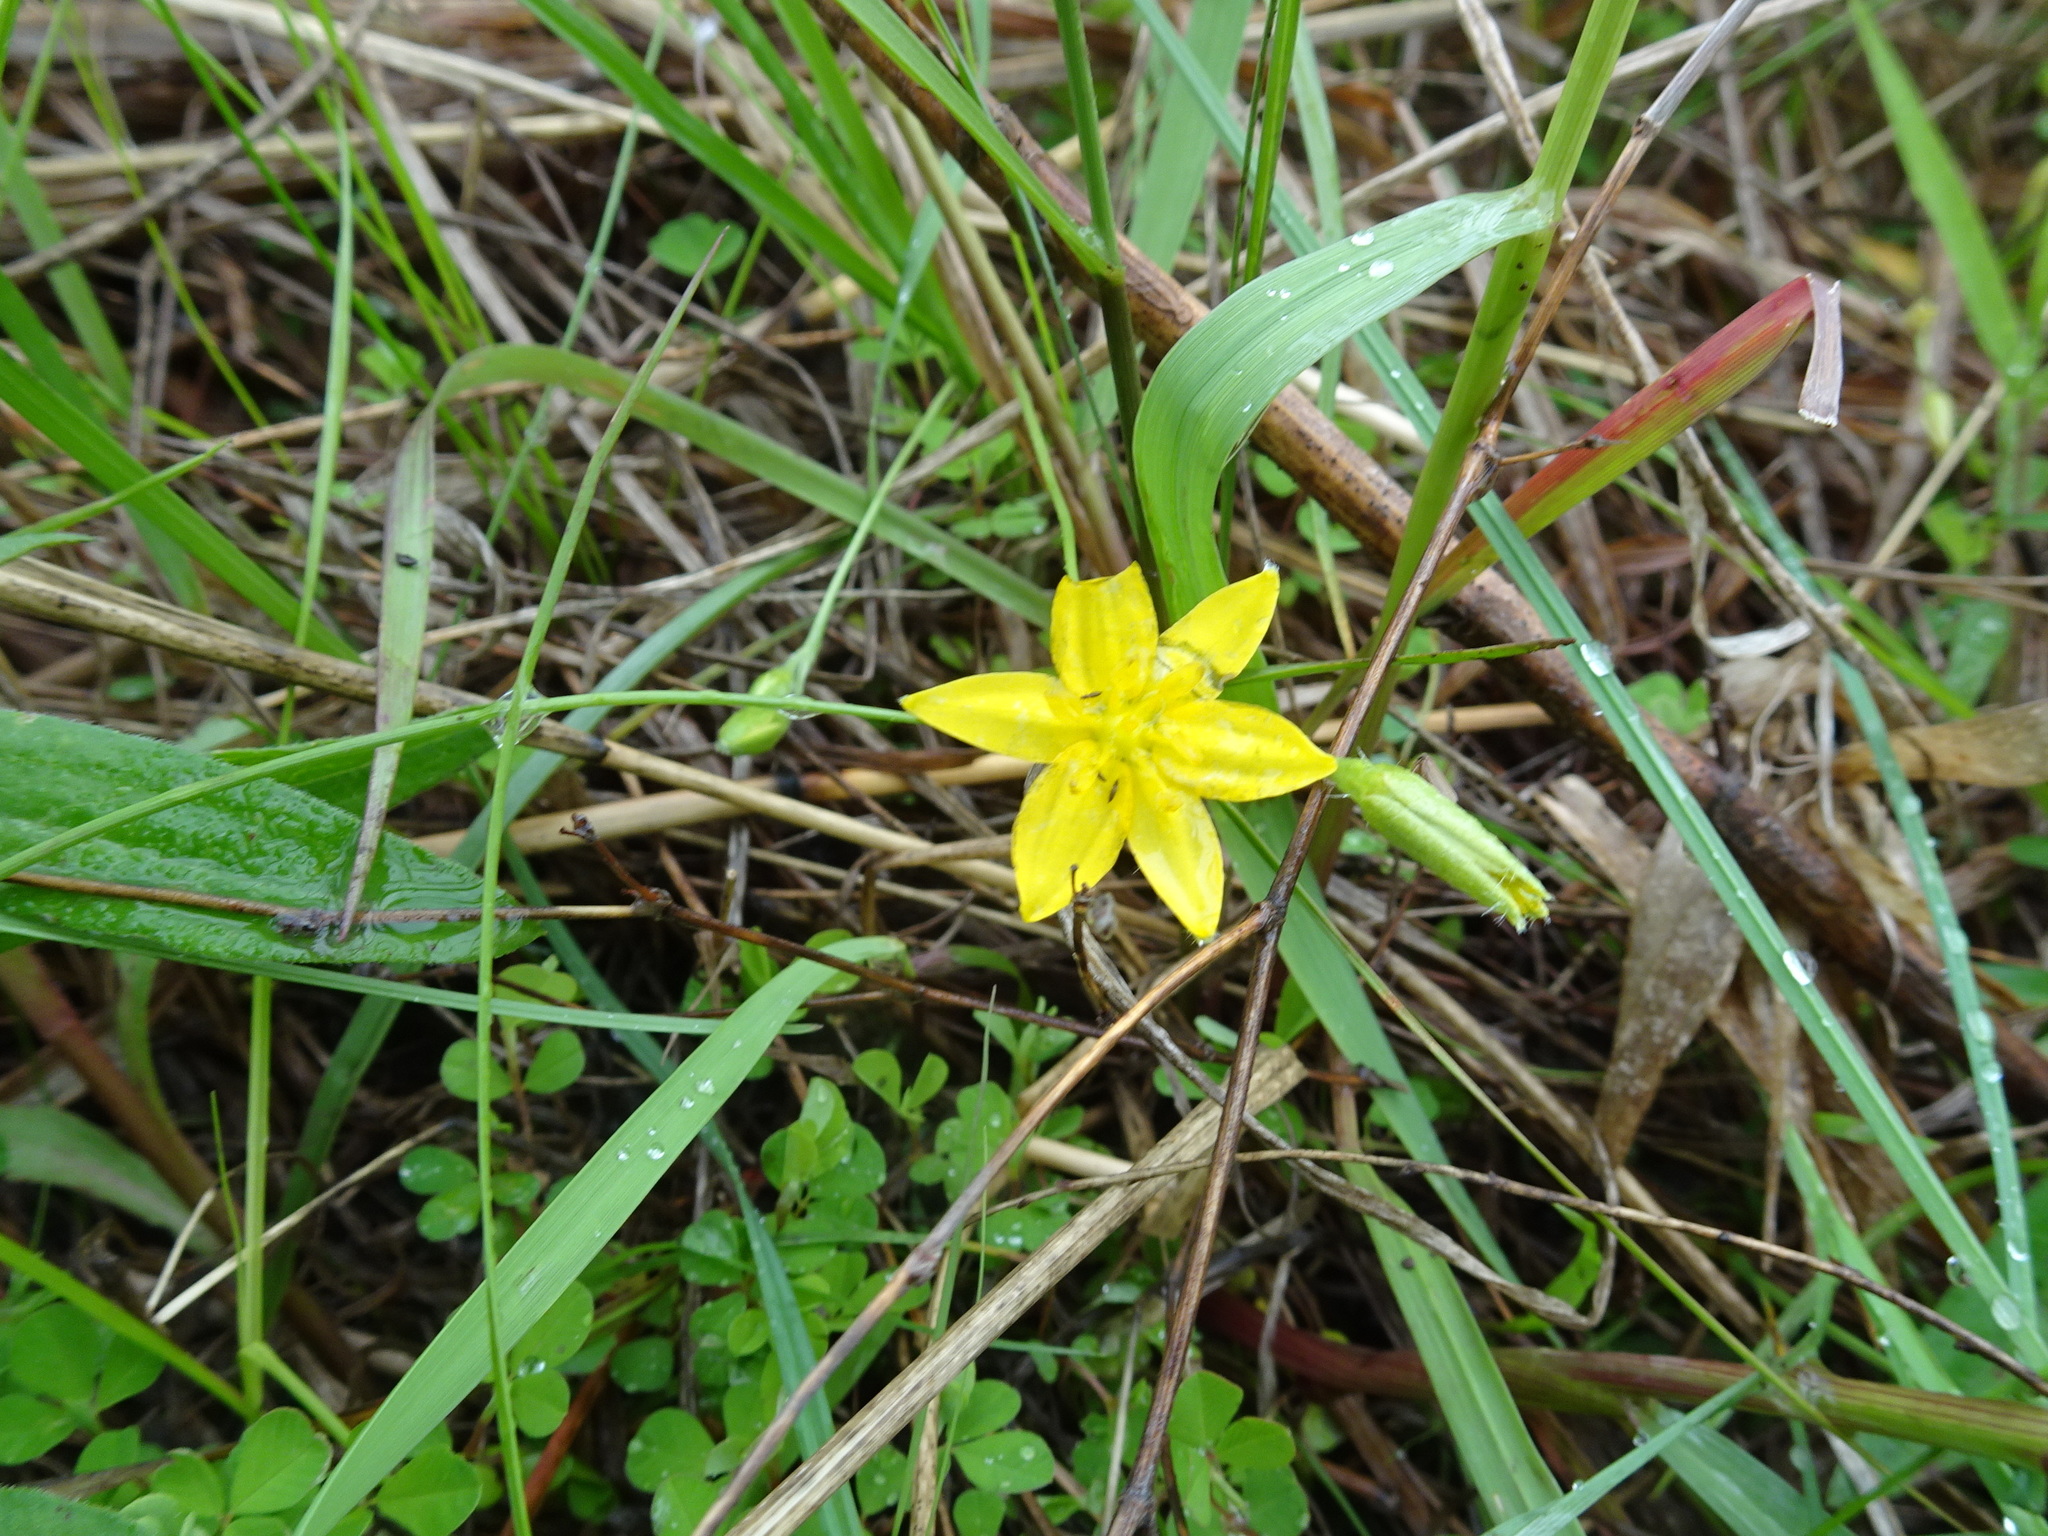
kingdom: Plantae
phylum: Tracheophyta
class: Liliopsida
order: Asparagales
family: Hypoxidaceae
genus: Hypoxis
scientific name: Hypoxis hirsuta
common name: Common goldstar
